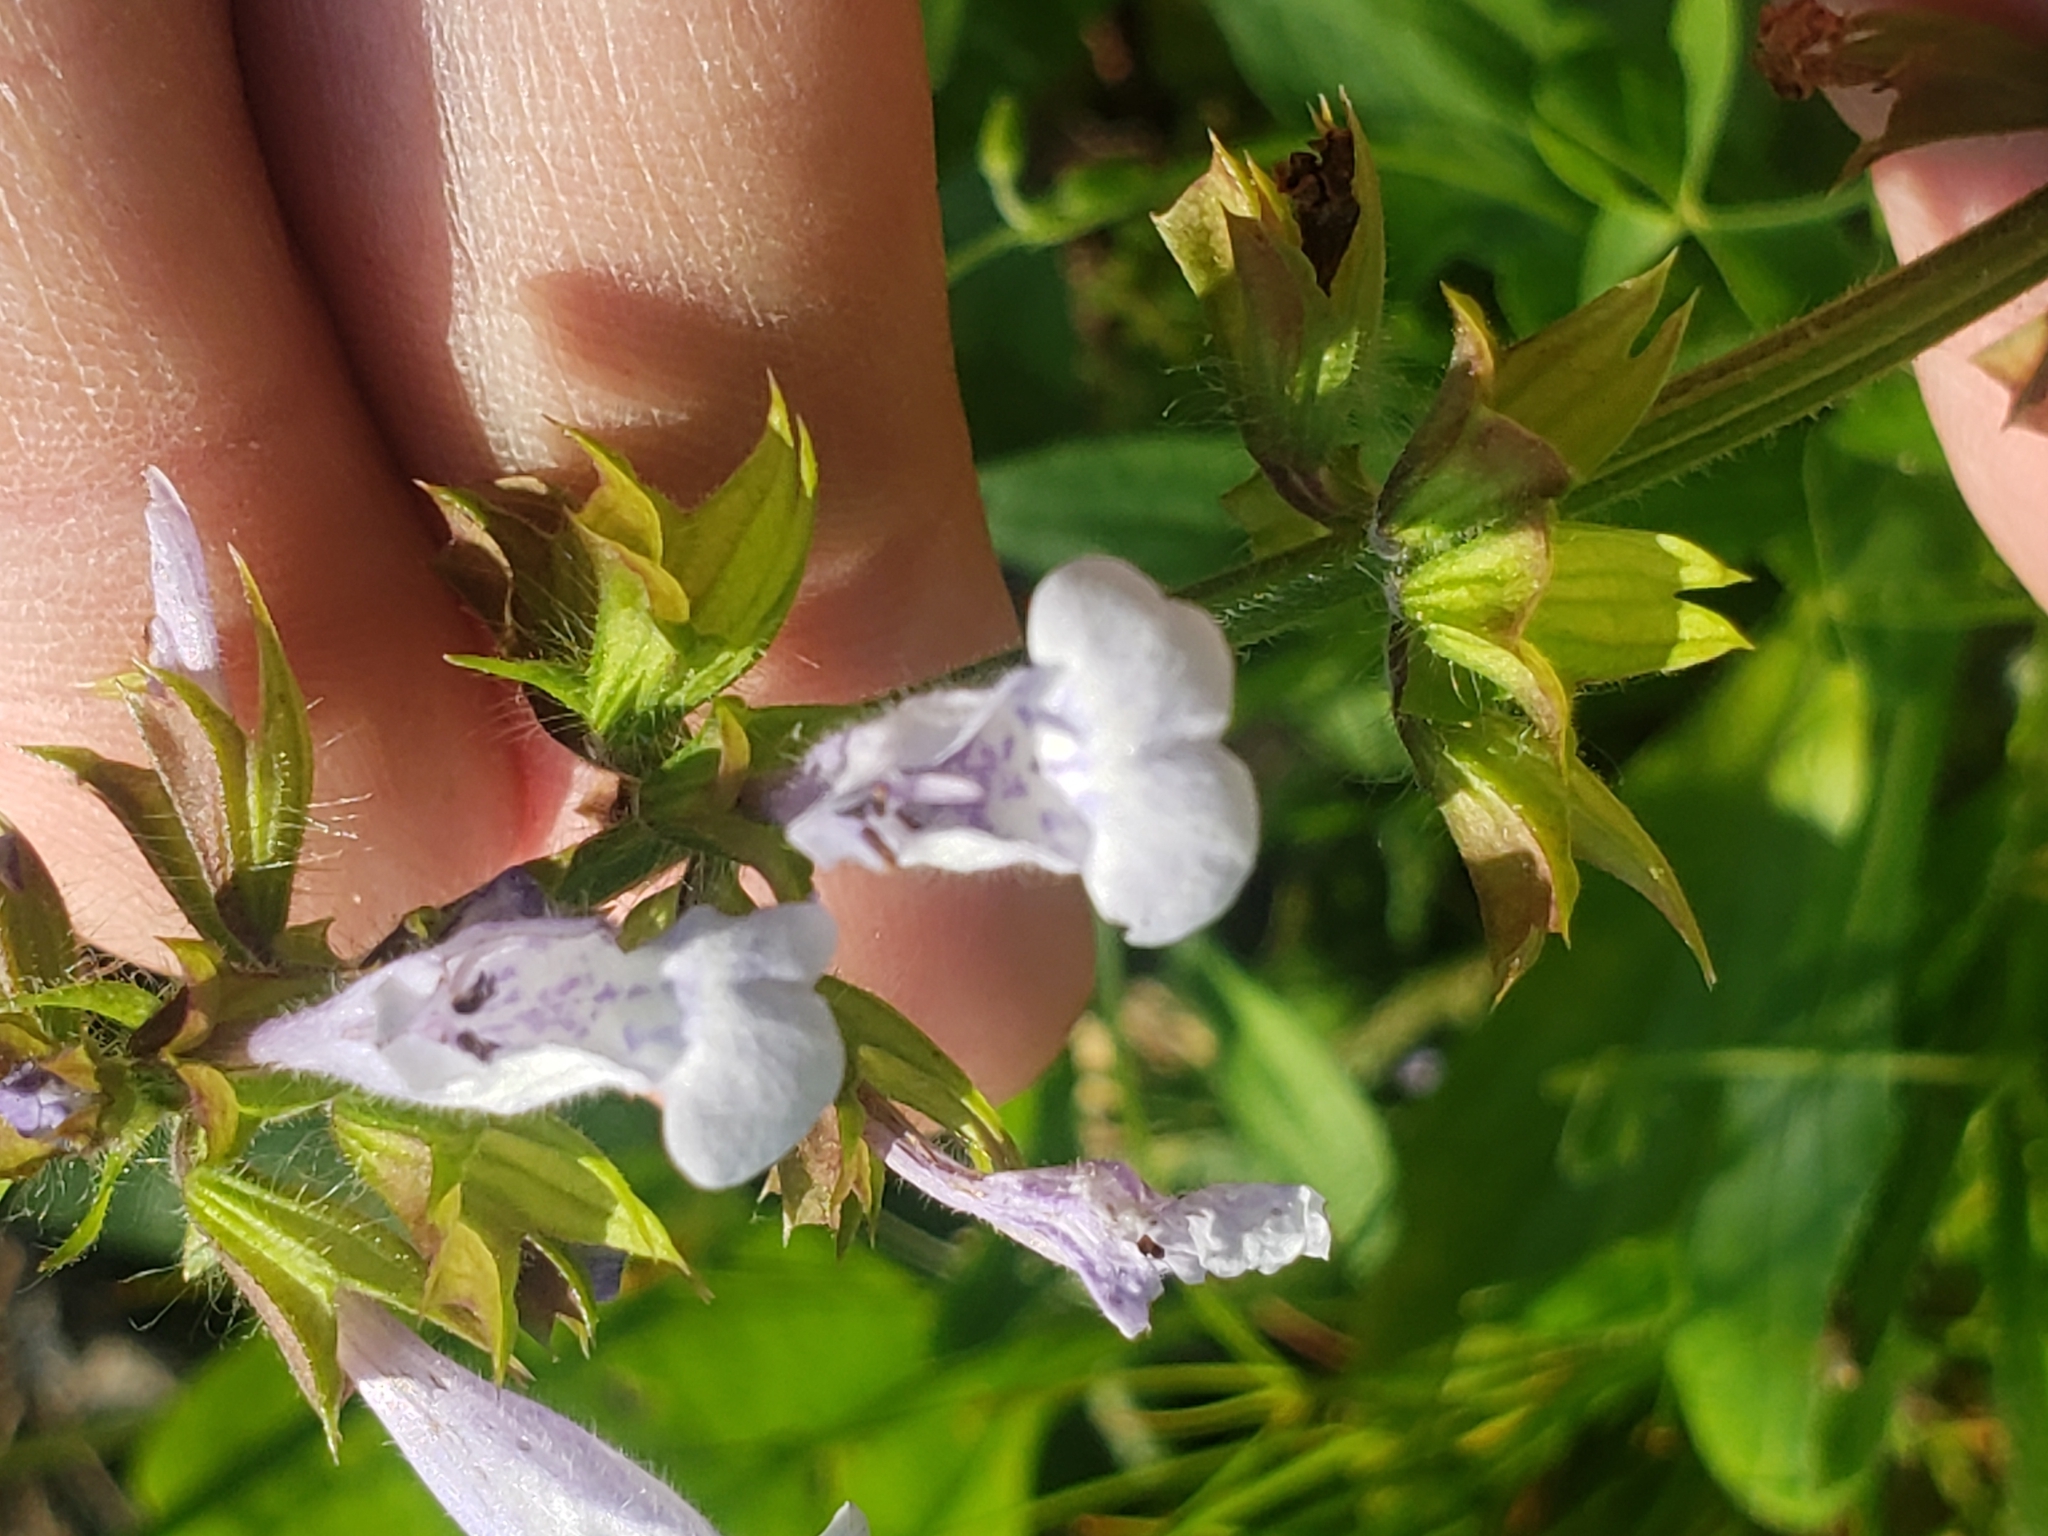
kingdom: Plantae
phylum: Tracheophyta
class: Magnoliopsida
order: Lamiales
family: Lamiaceae
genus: Salvia
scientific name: Salvia lyrata
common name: Cancerweed
